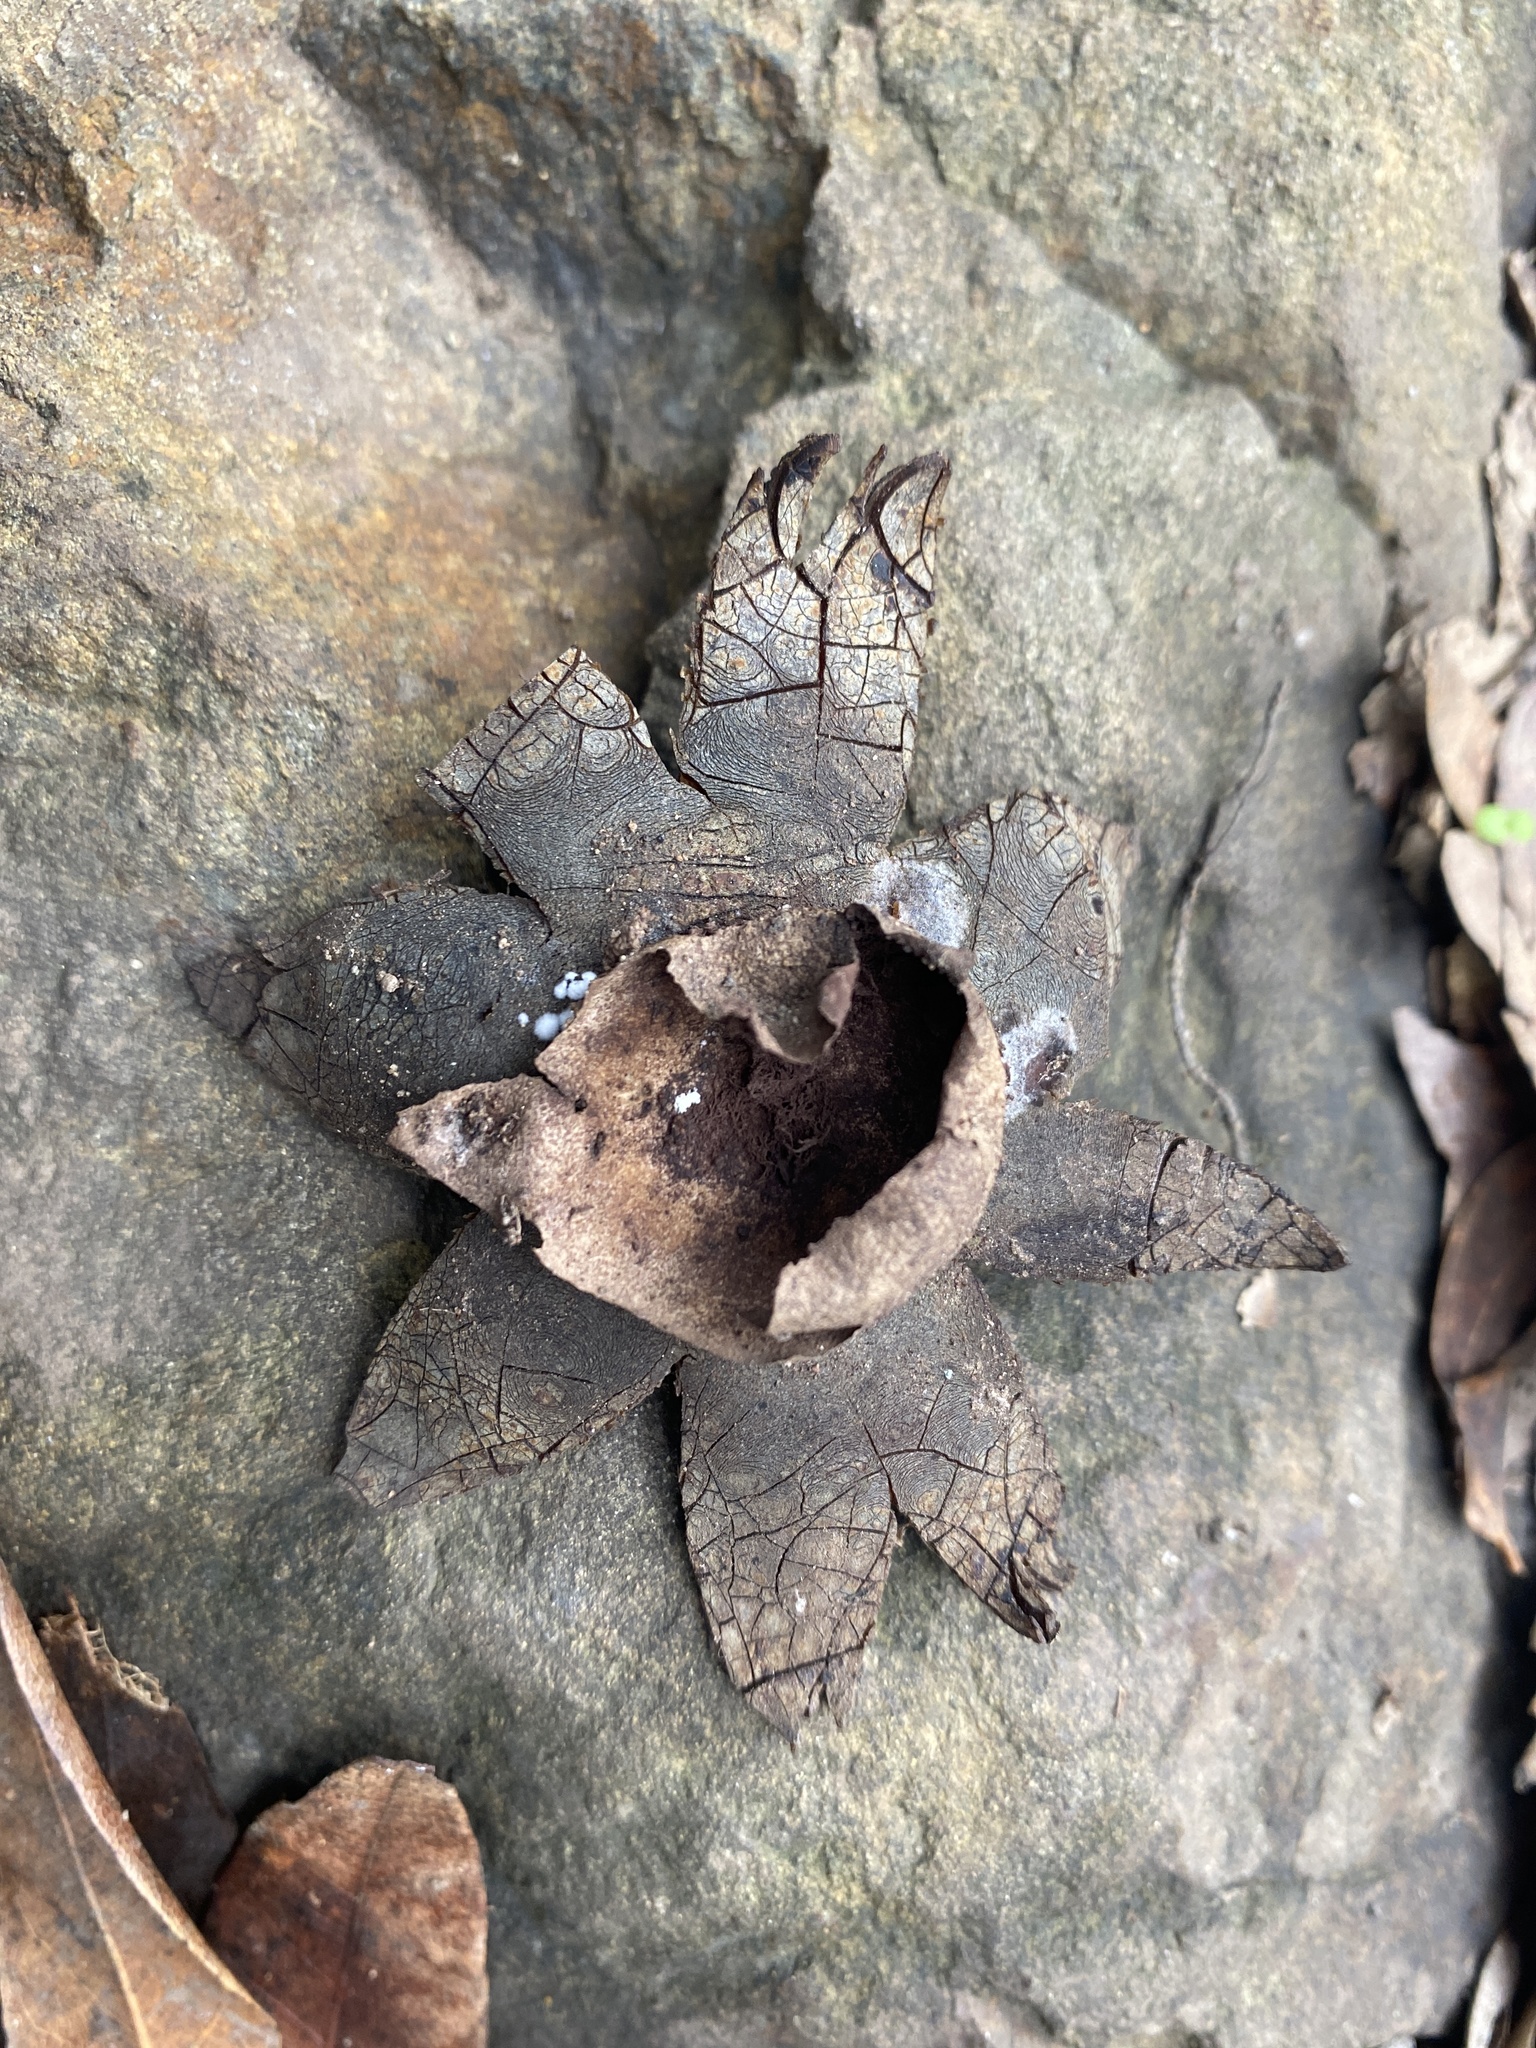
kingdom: Fungi
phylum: Basidiomycota
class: Agaricomycetes
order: Boletales
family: Diplocystidiaceae
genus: Astraeus
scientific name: Astraeus hygrometricus
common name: Barometer earthstar
